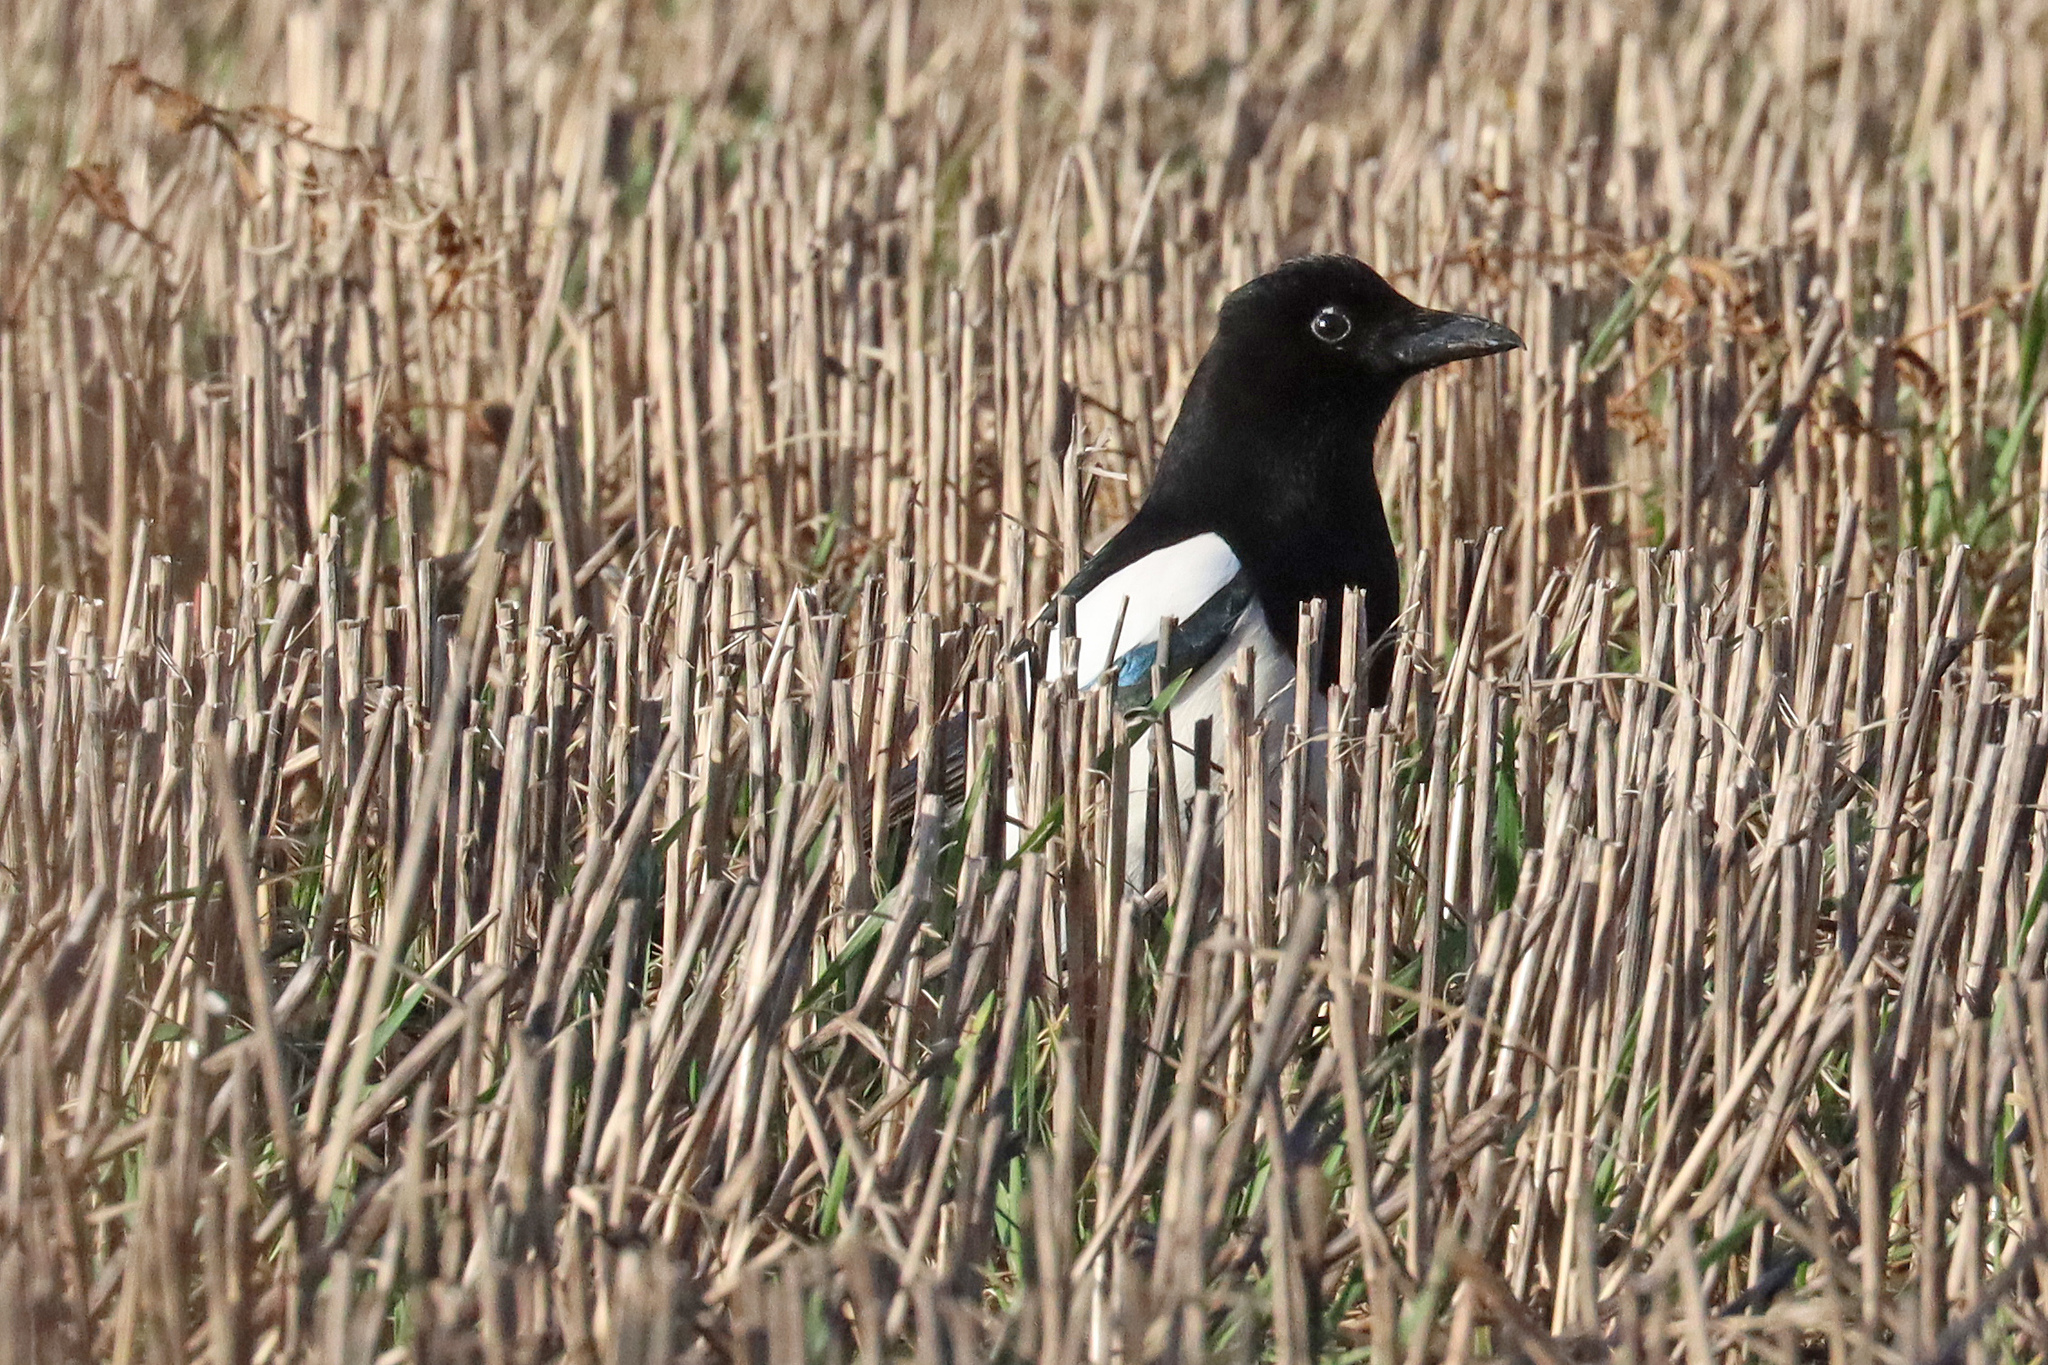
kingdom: Animalia
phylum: Chordata
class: Aves
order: Passeriformes
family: Corvidae
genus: Pica
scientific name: Pica pica
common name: Eurasian magpie
